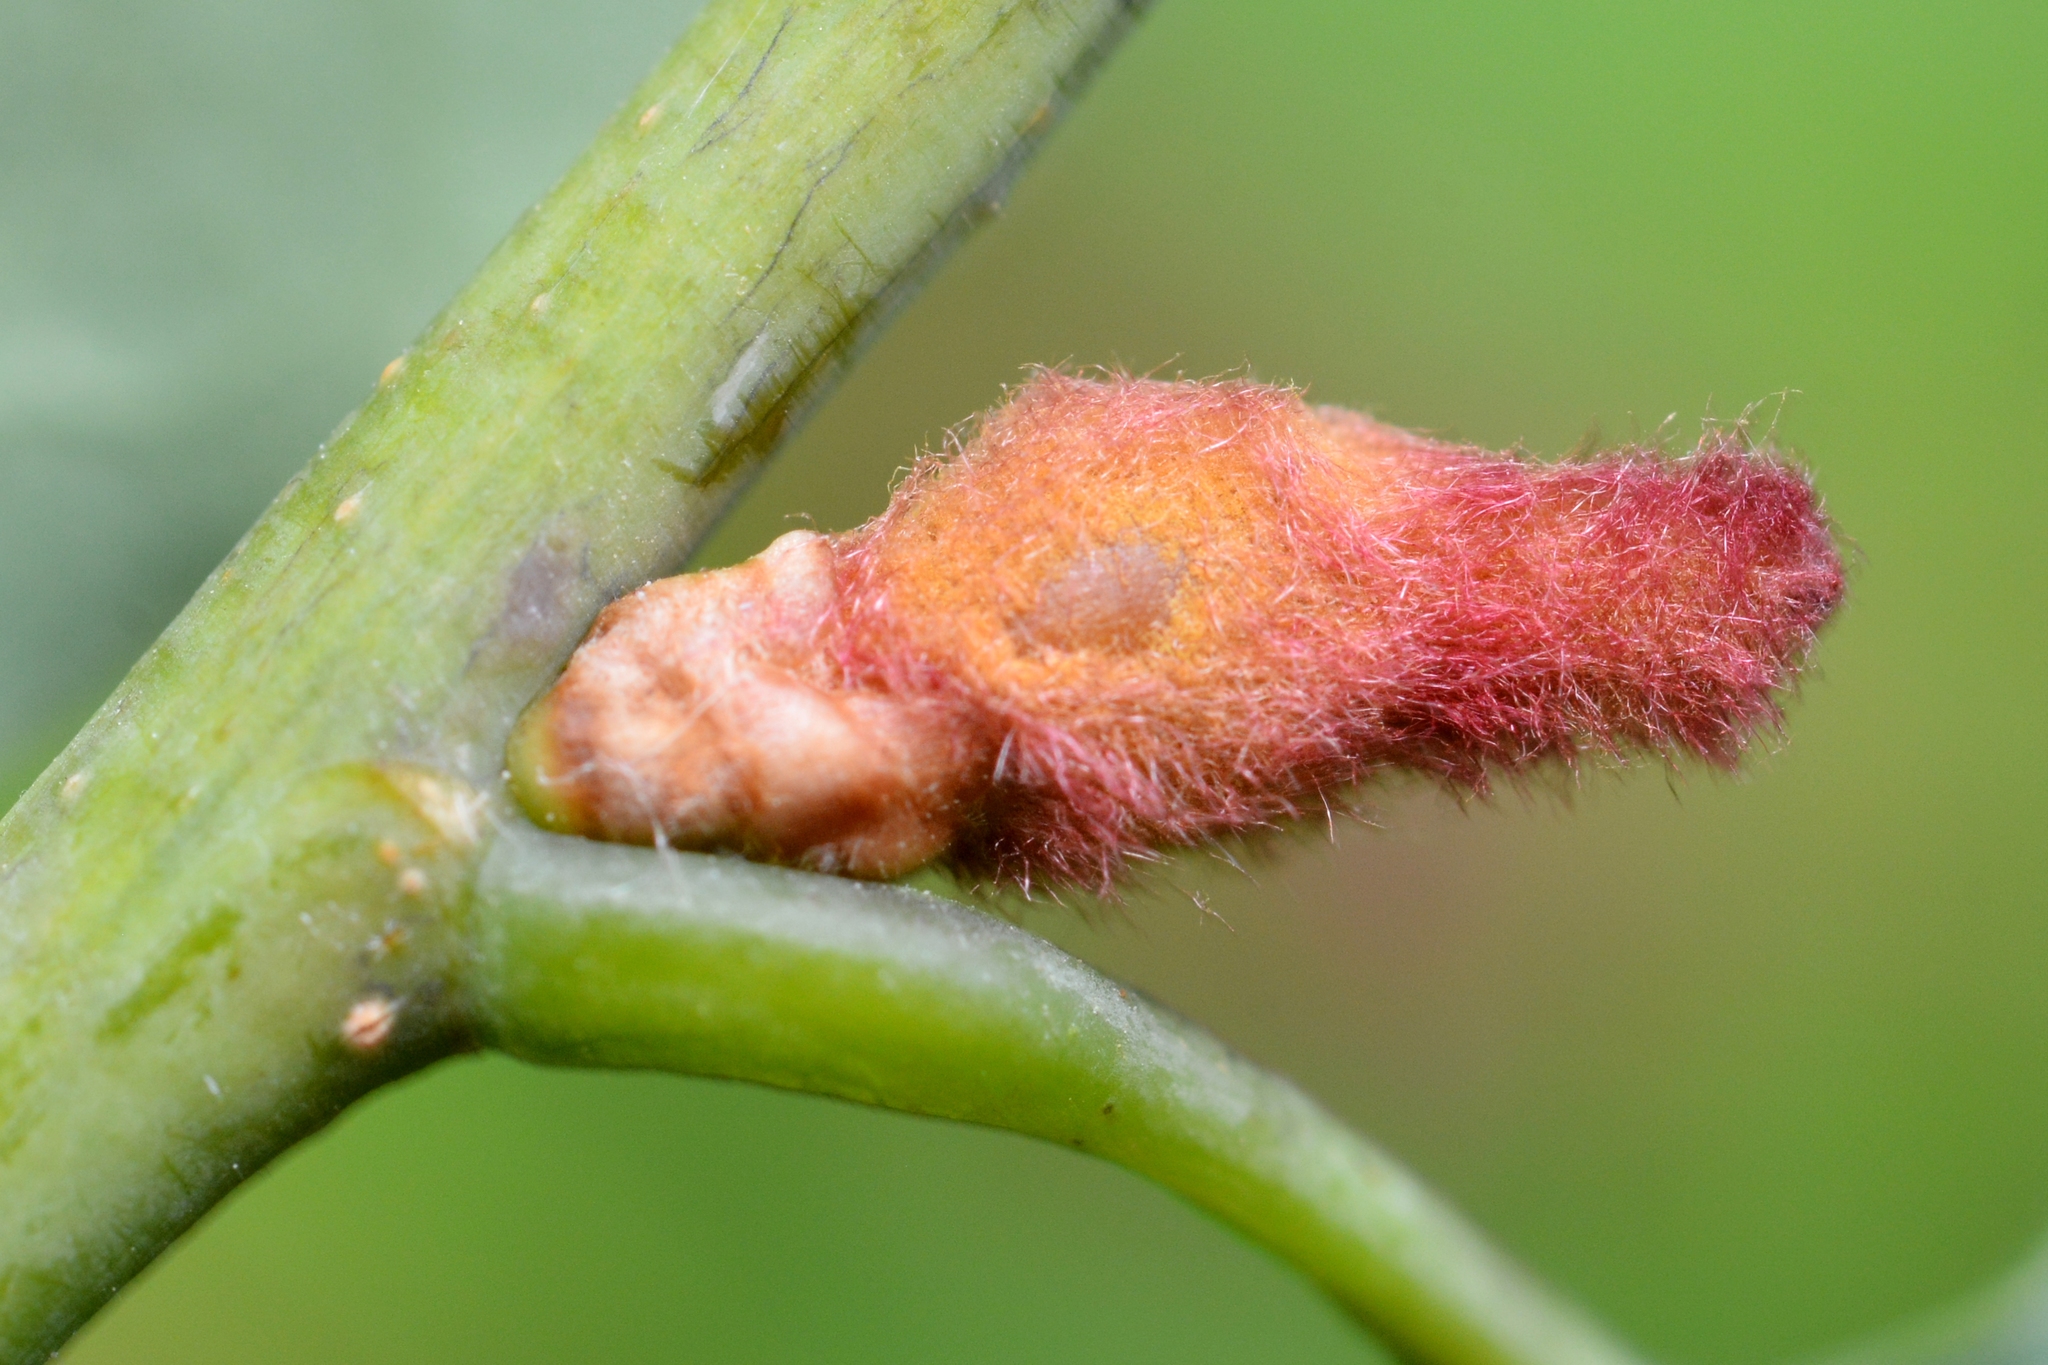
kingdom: Animalia
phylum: Arthropoda
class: Insecta
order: Hymenoptera
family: Cynipidae
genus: Andricus
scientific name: Andricus solitarius
